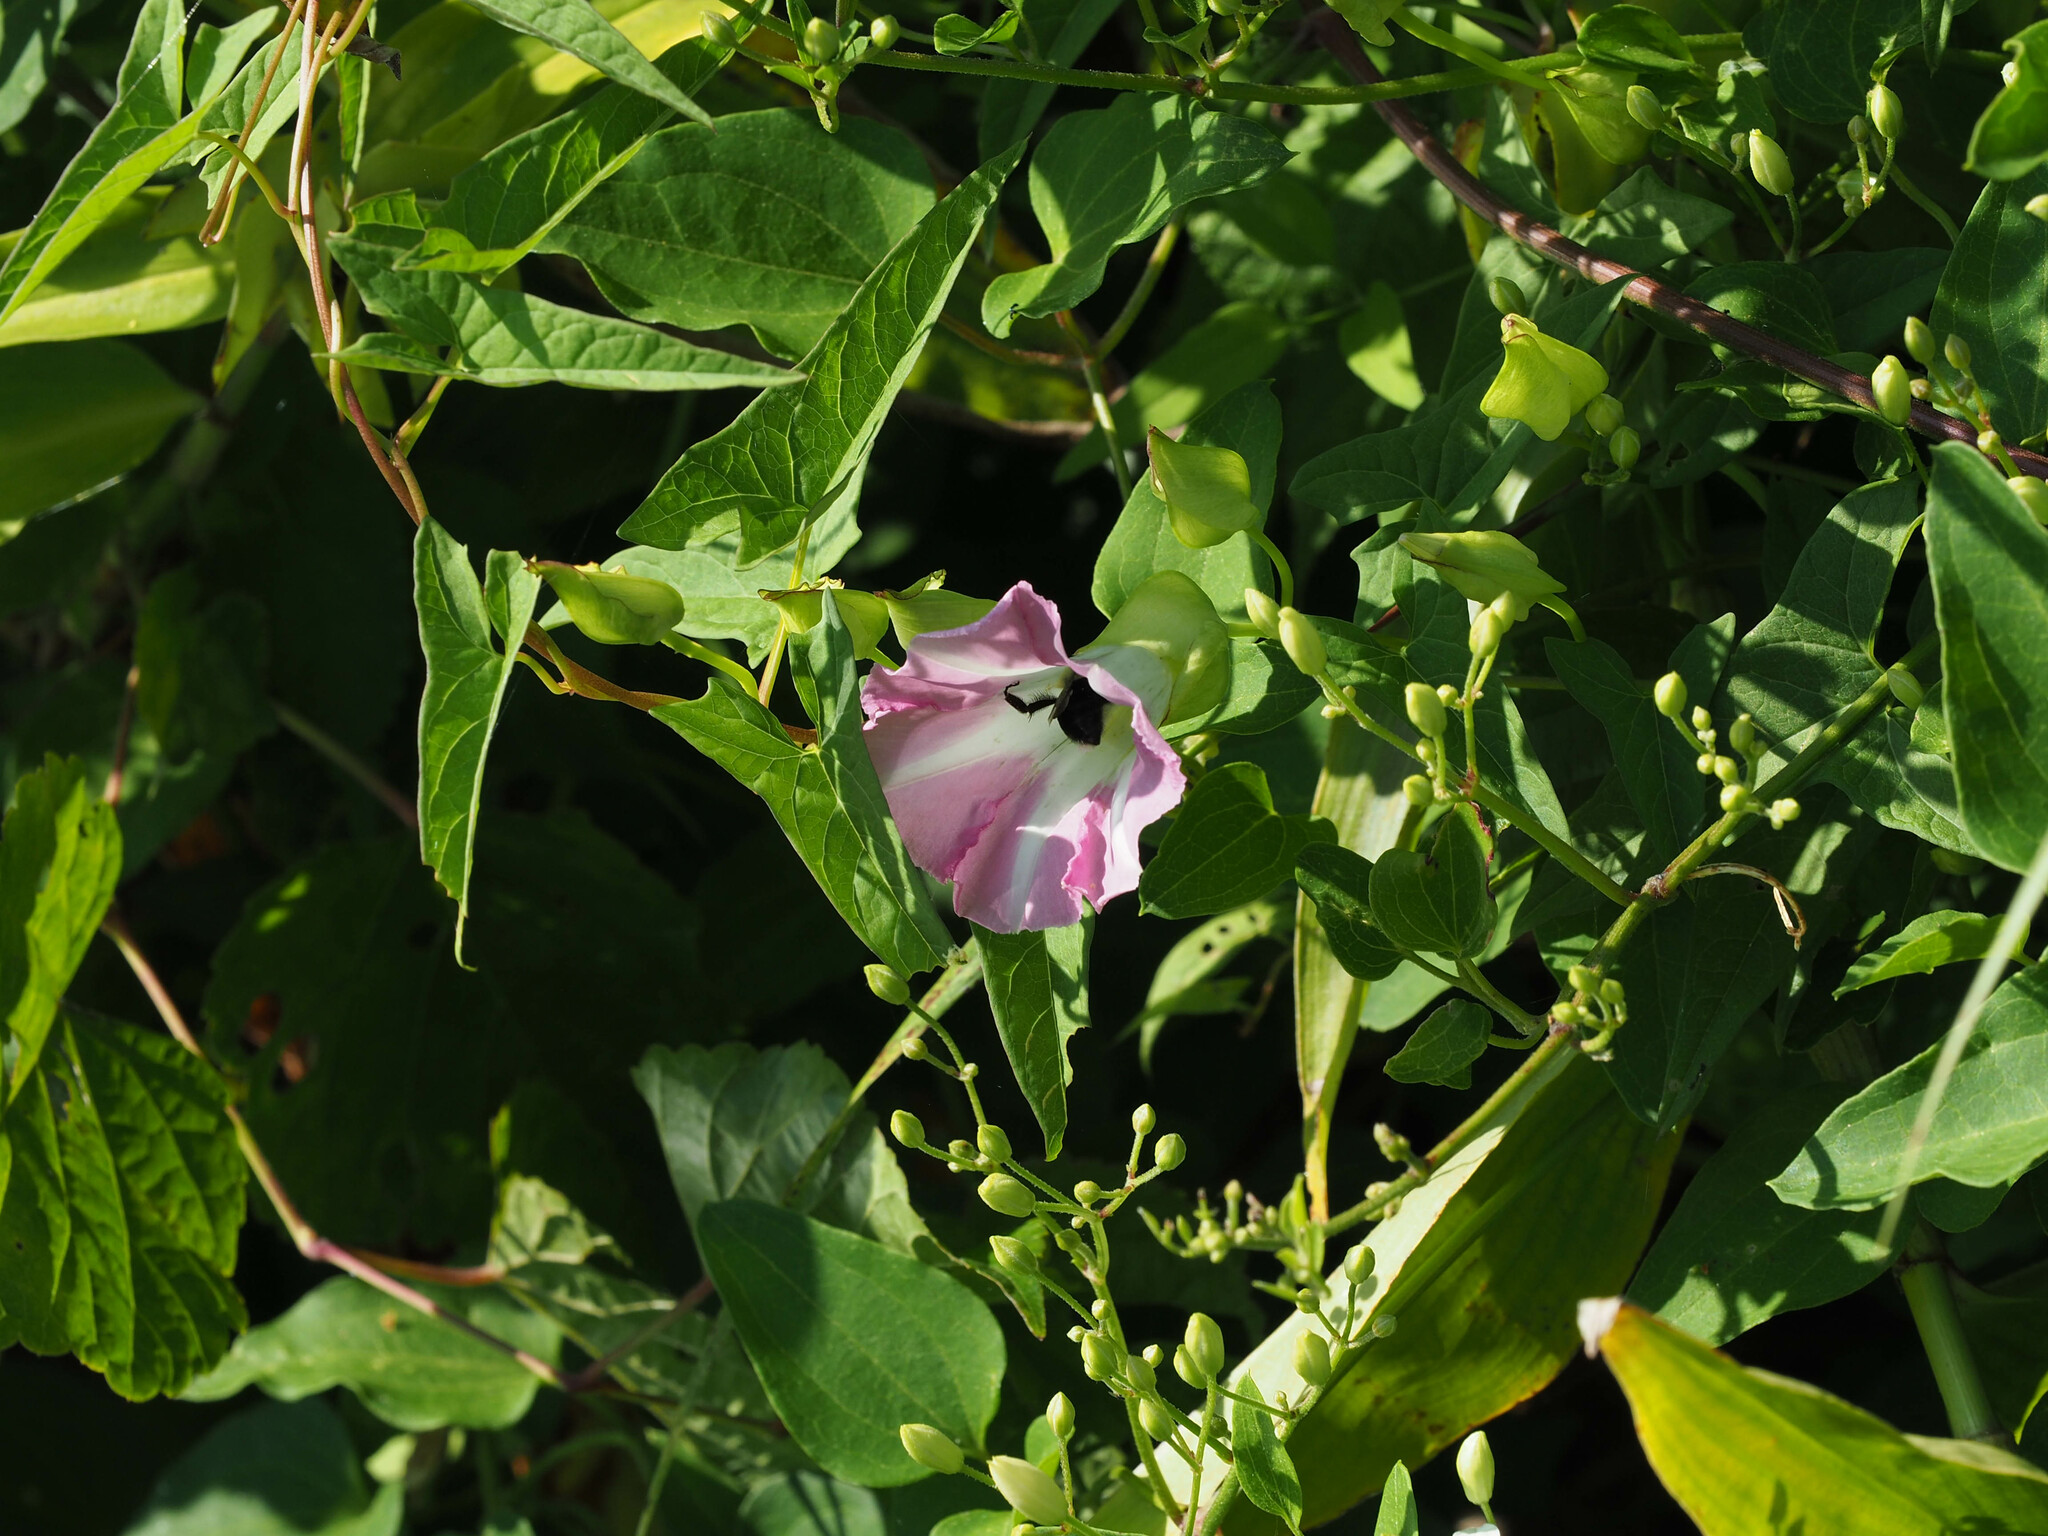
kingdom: Plantae
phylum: Tracheophyta
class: Magnoliopsida
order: Solanales
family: Convolvulaceae
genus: Calystegia
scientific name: Calystegia sepium
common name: Hedge bindweed
